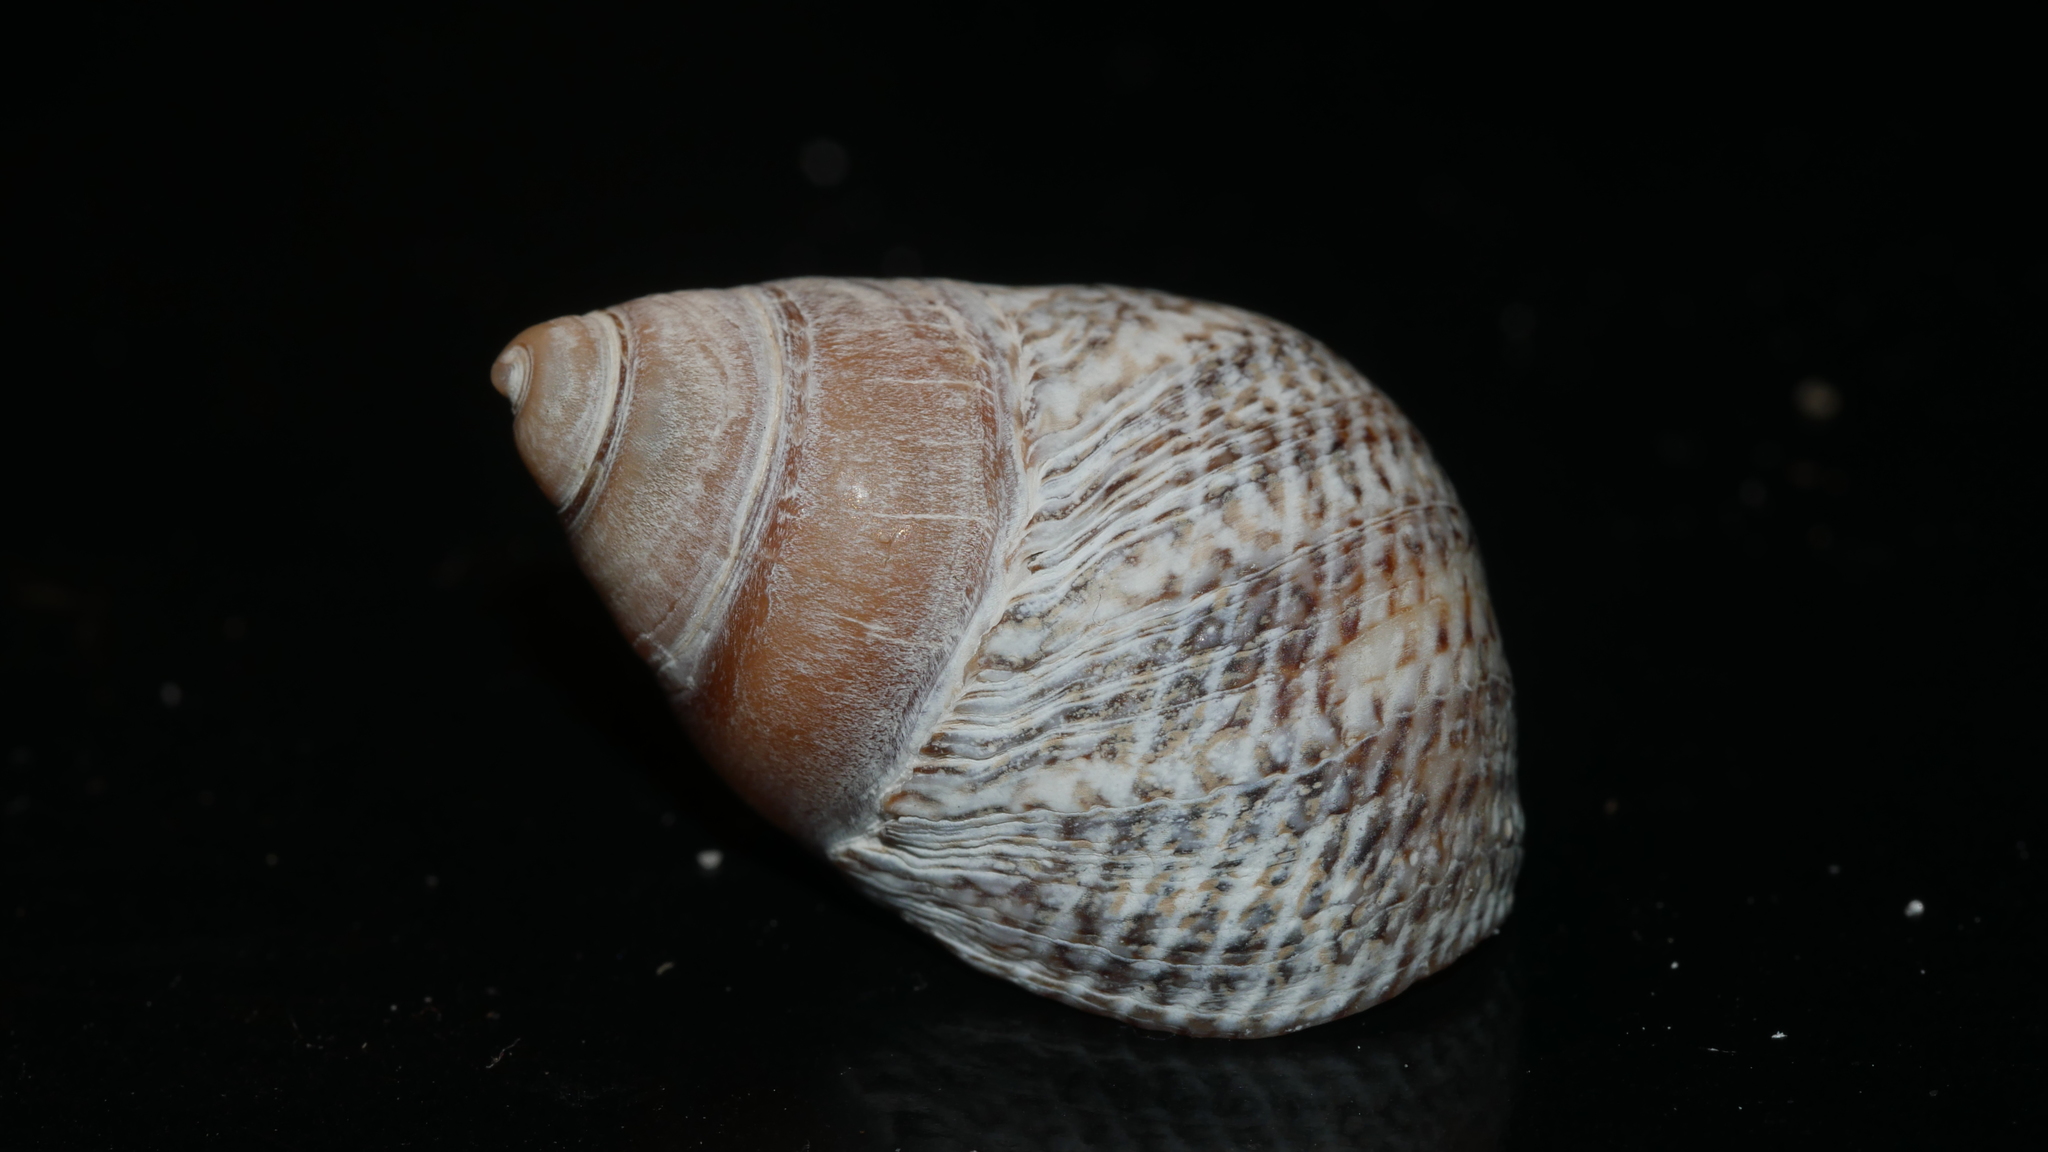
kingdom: Animalia
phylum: Mollusca
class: Gastropoda
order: Littorinimorpha
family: Littorinidae
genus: Littoraria
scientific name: Littoraria irrorata
